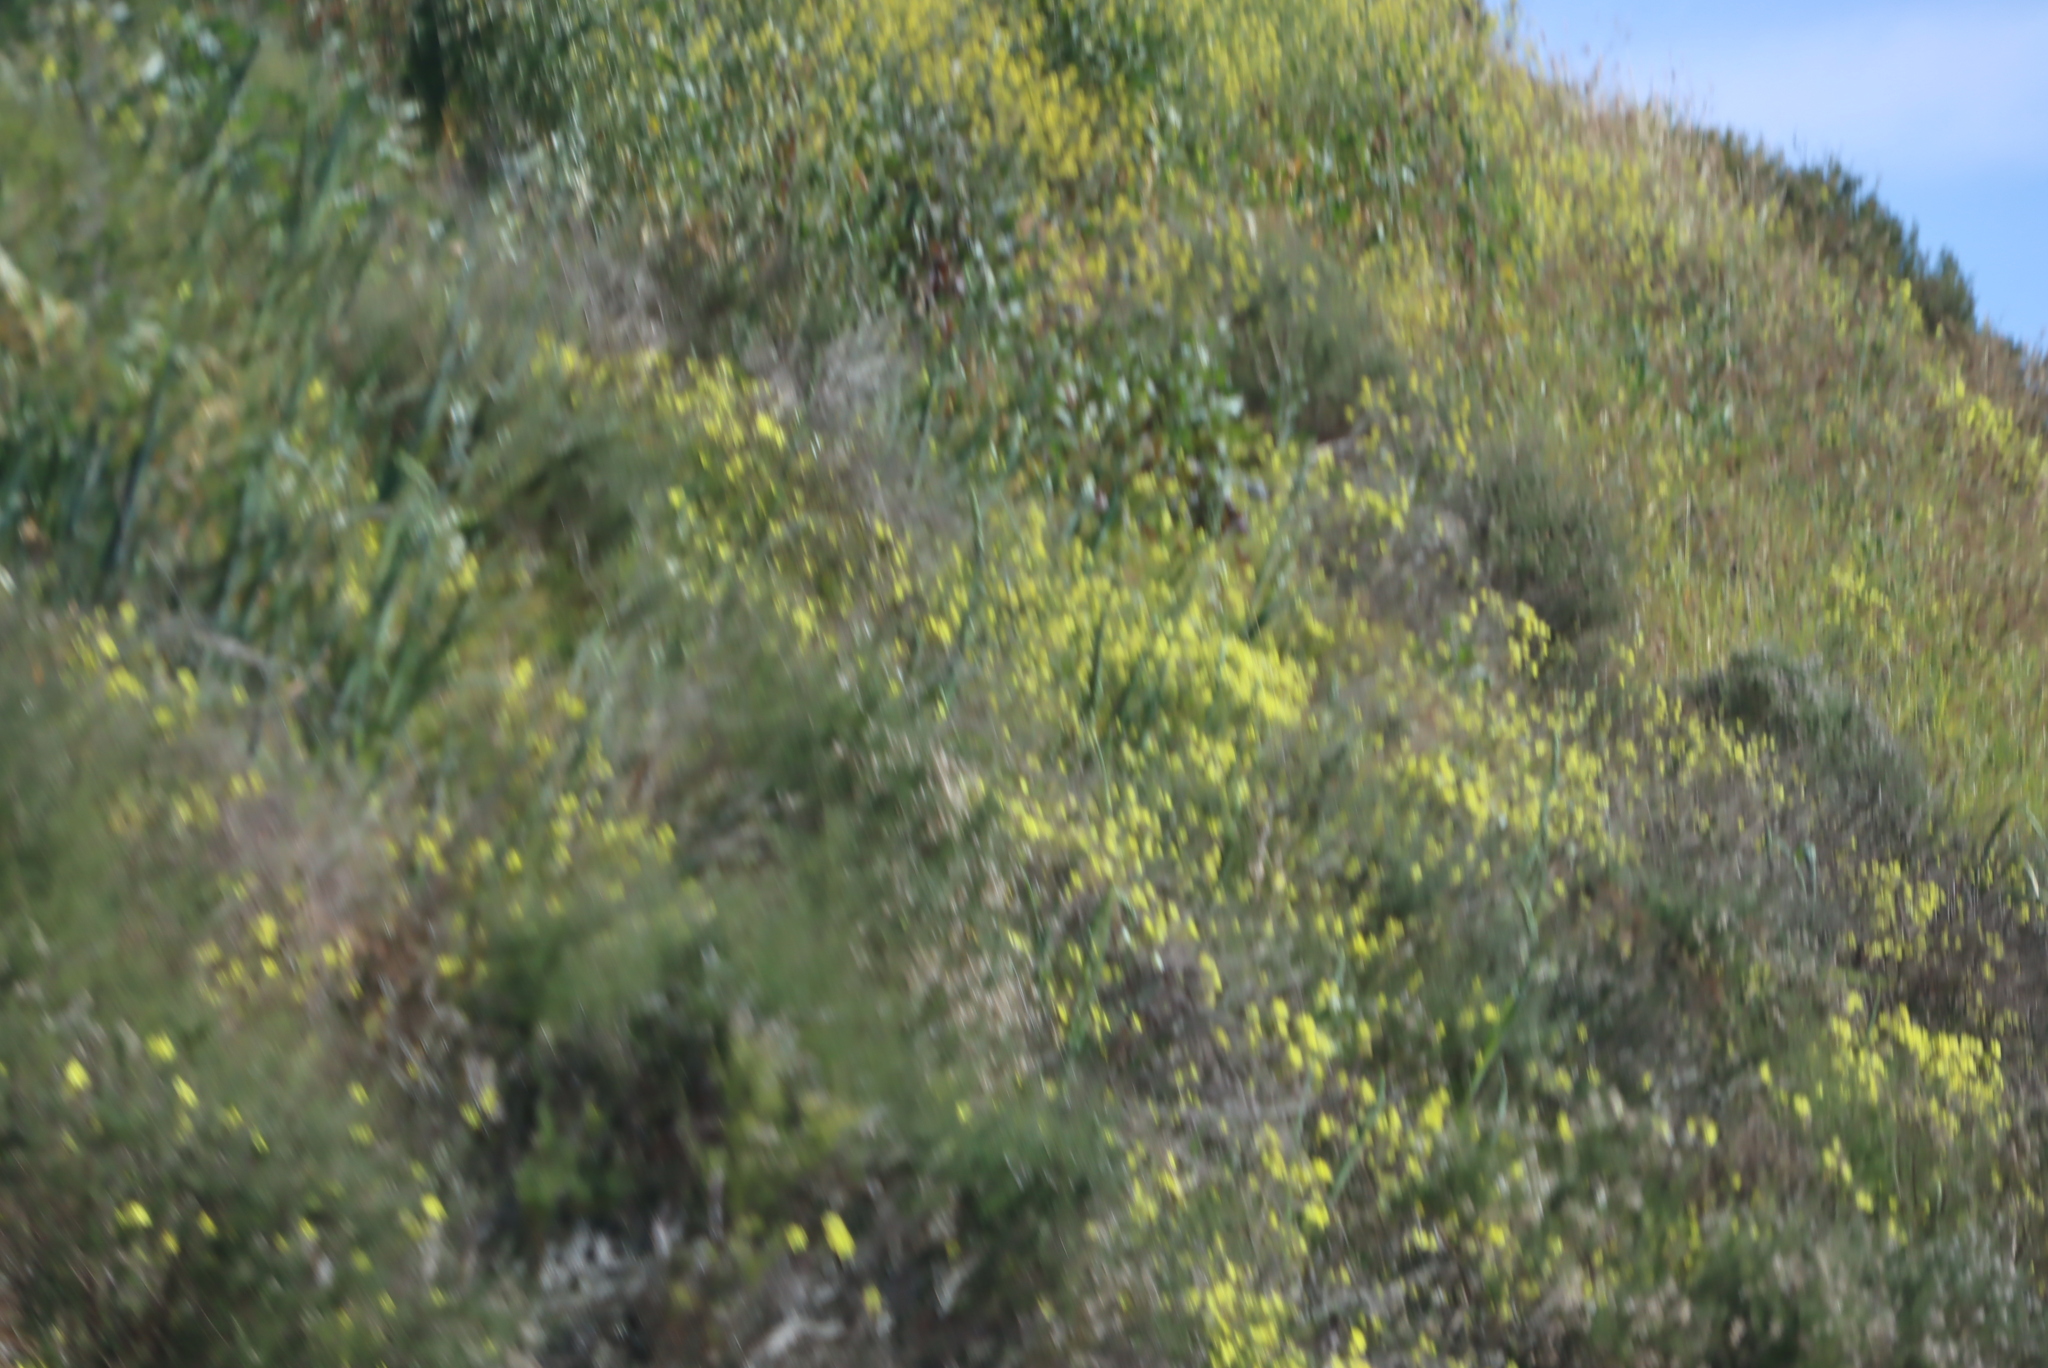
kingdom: Plantae
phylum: Tracheophyta
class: Magnoliopsida
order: Oxalidales
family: Oxalidaceae
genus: Oxalis
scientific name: Oxalis pes-caprae
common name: Bermuda-buttercup
